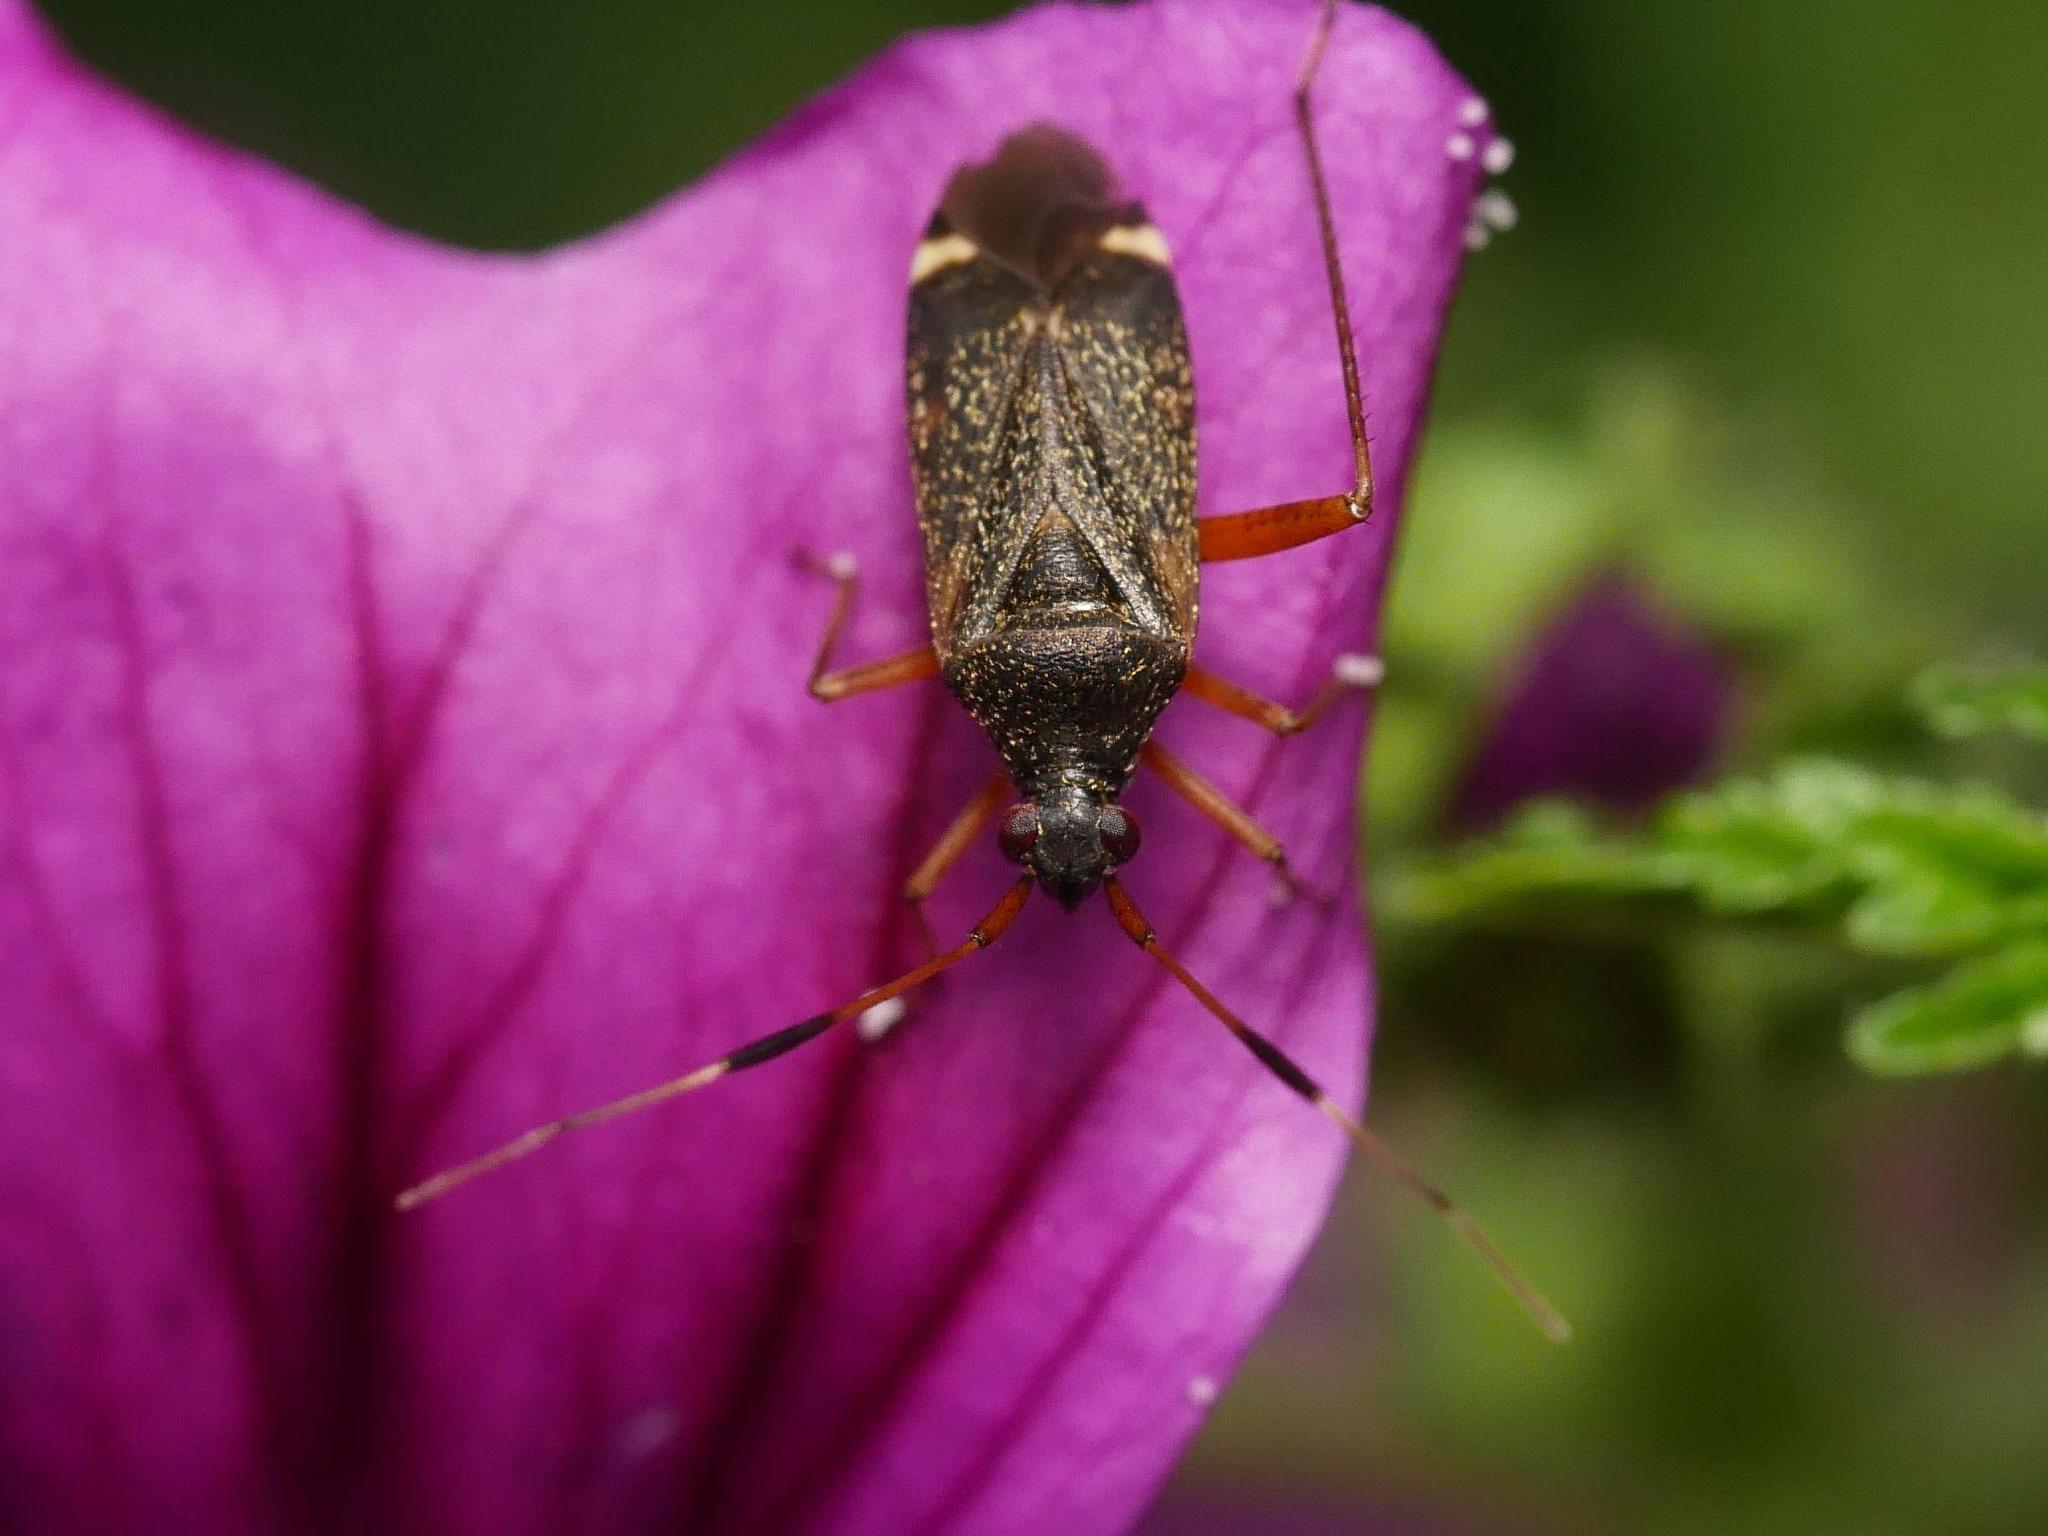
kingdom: Animalia
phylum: Arthropoda
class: Insecta
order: Hemiptera
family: Miridae
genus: Closterotomus
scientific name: Closterotomus biclavatus
